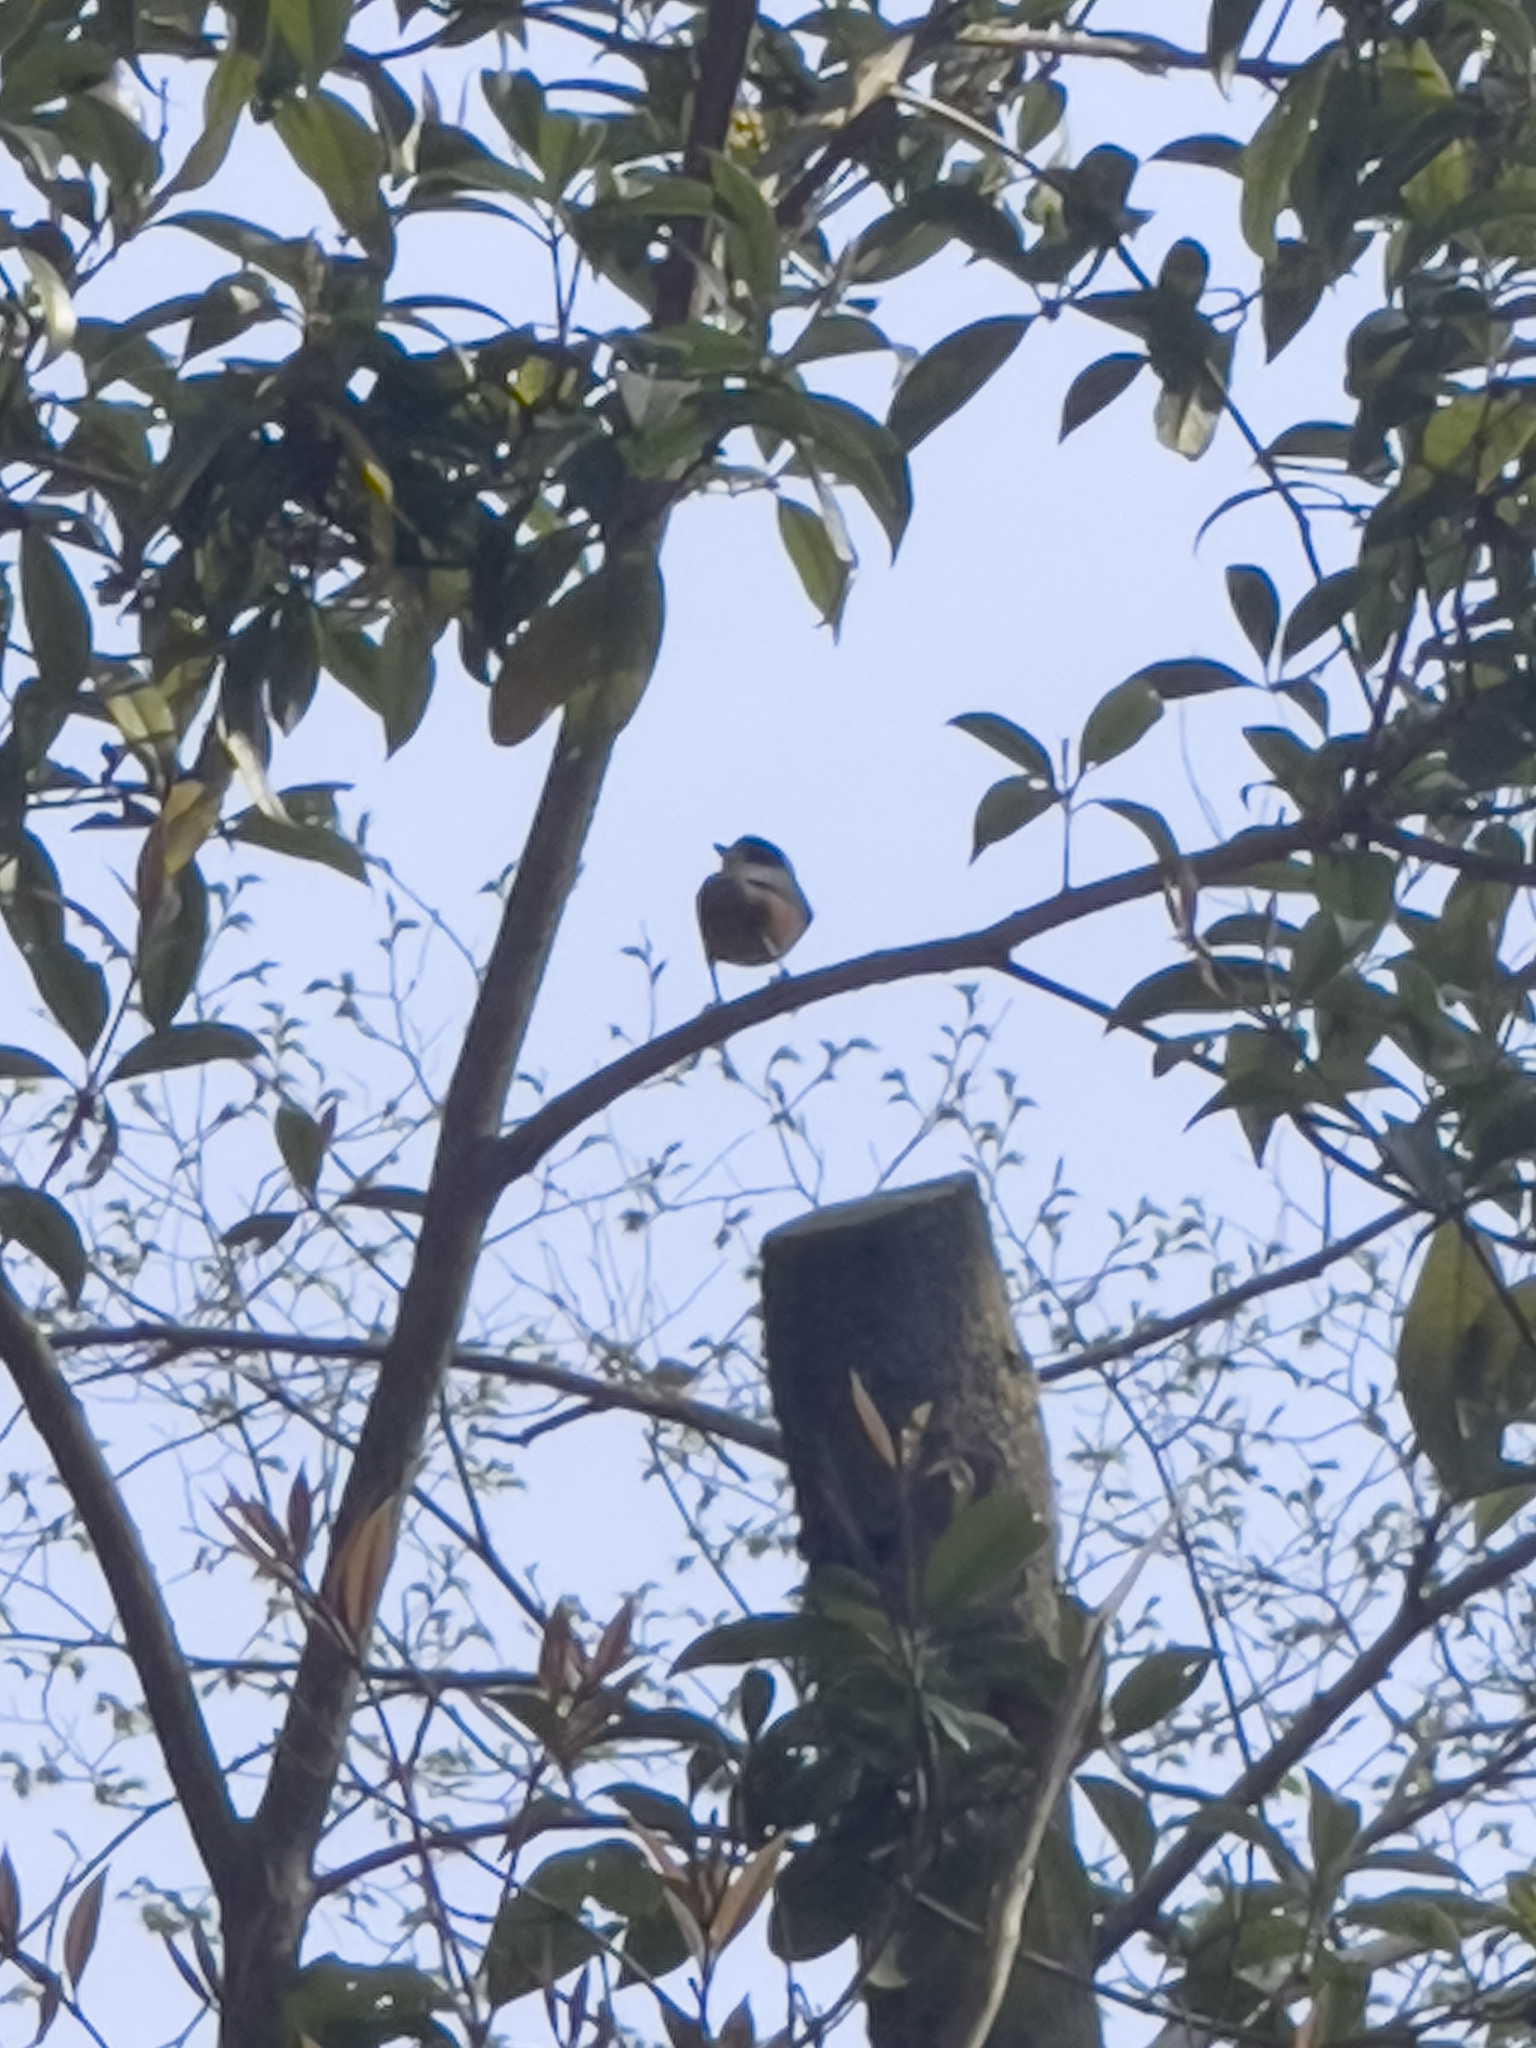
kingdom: Animalia
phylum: Chordata
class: Aves
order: Passeriformes
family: Paridae
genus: Poecile
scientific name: Poecile varius
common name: Varied tit
